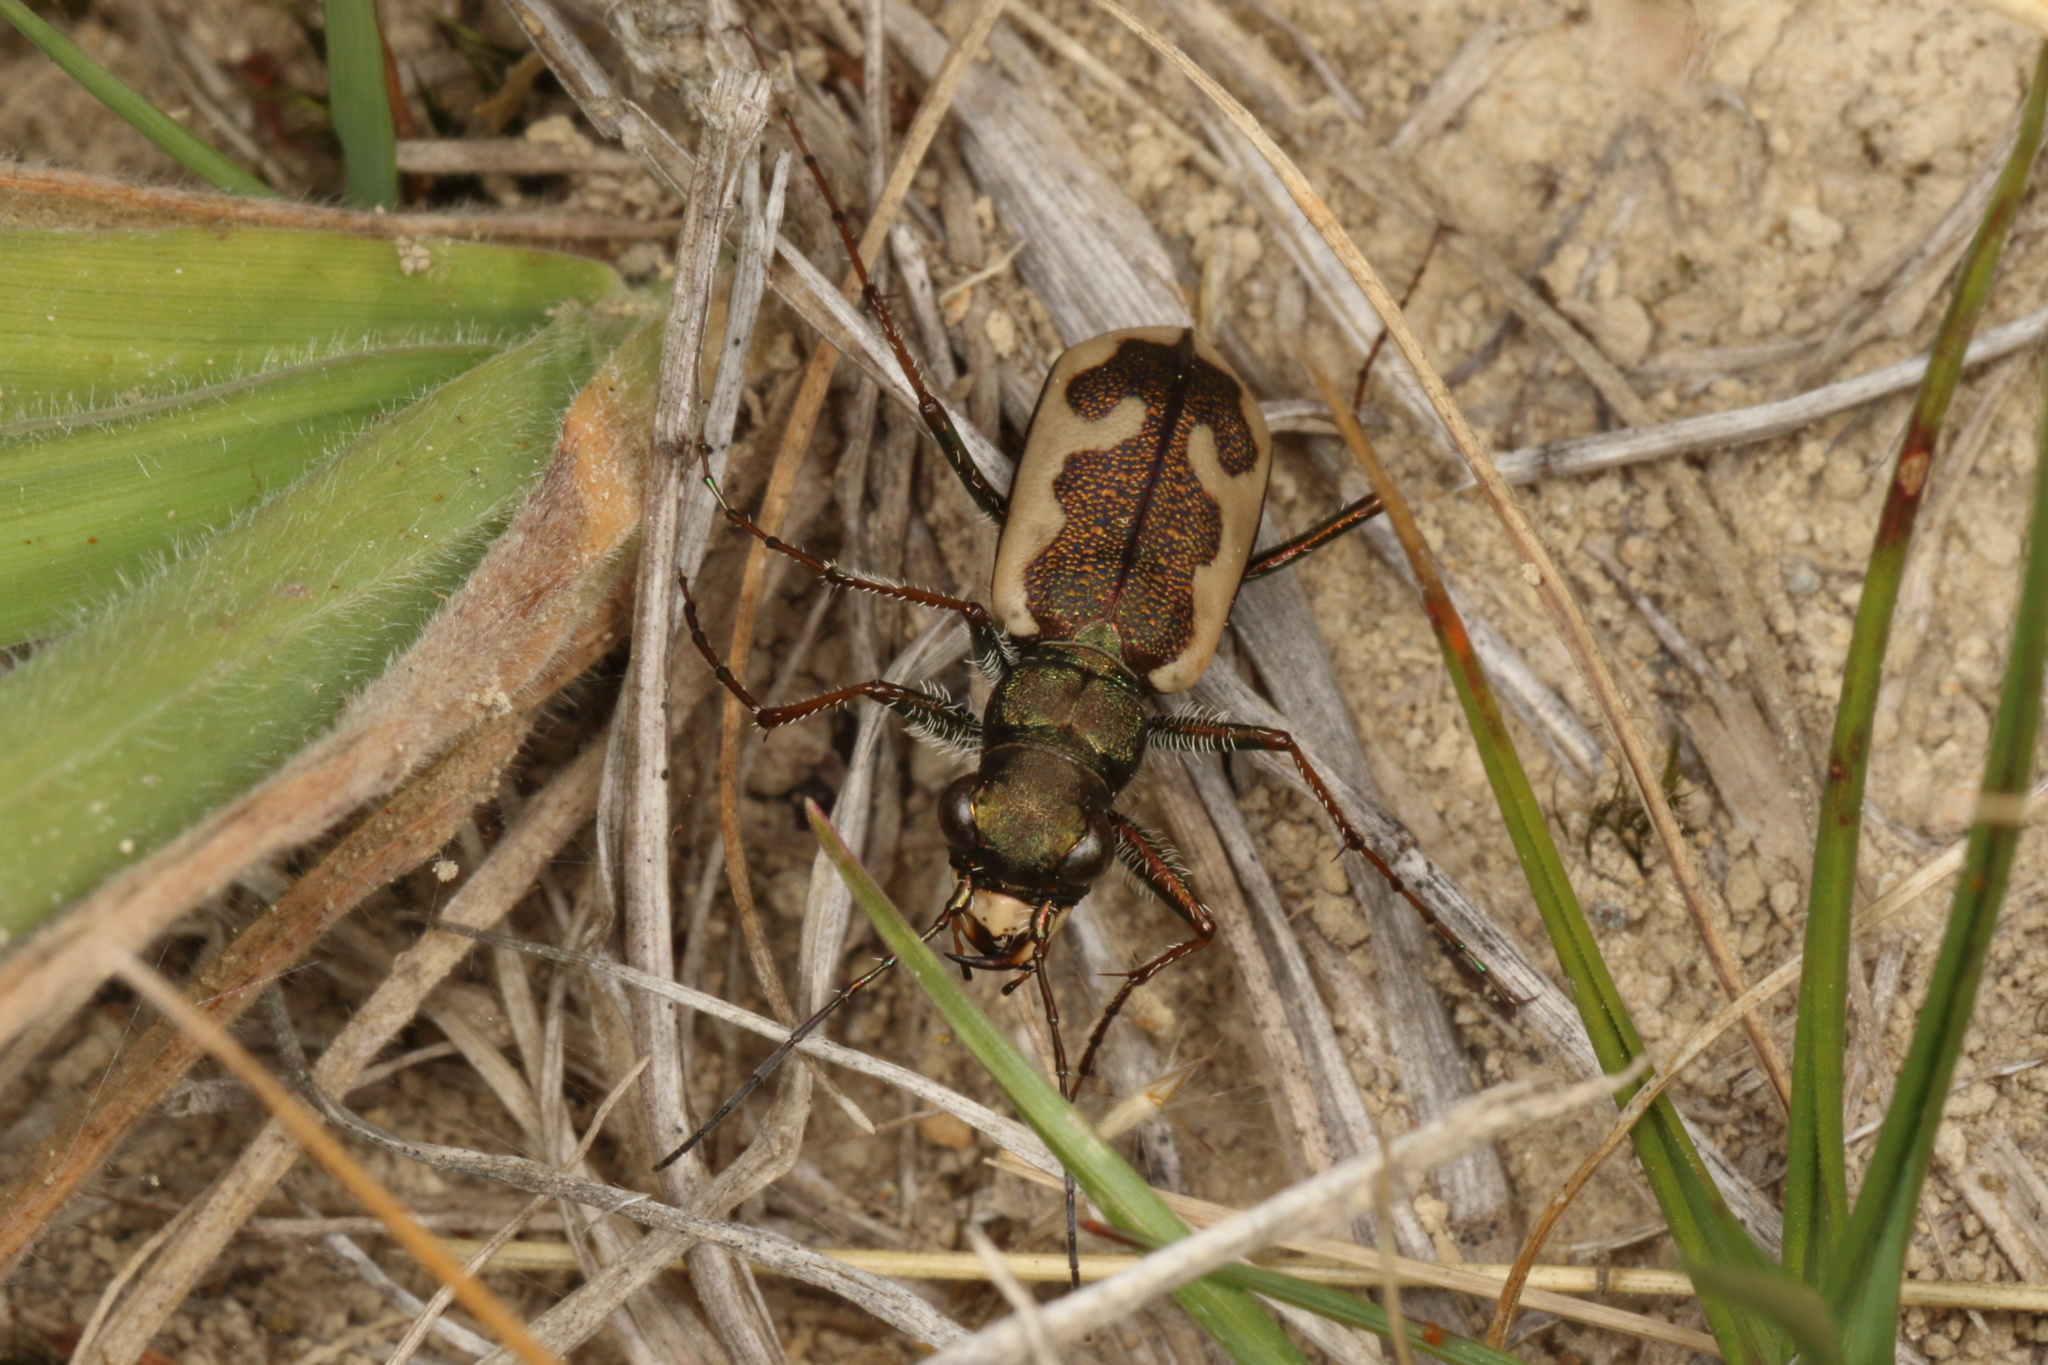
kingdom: Animalia
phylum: Arthropoda
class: Insecta
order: Coleoptera
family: Carabidae
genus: Neocicindela
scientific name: Neocicindela latecincta
